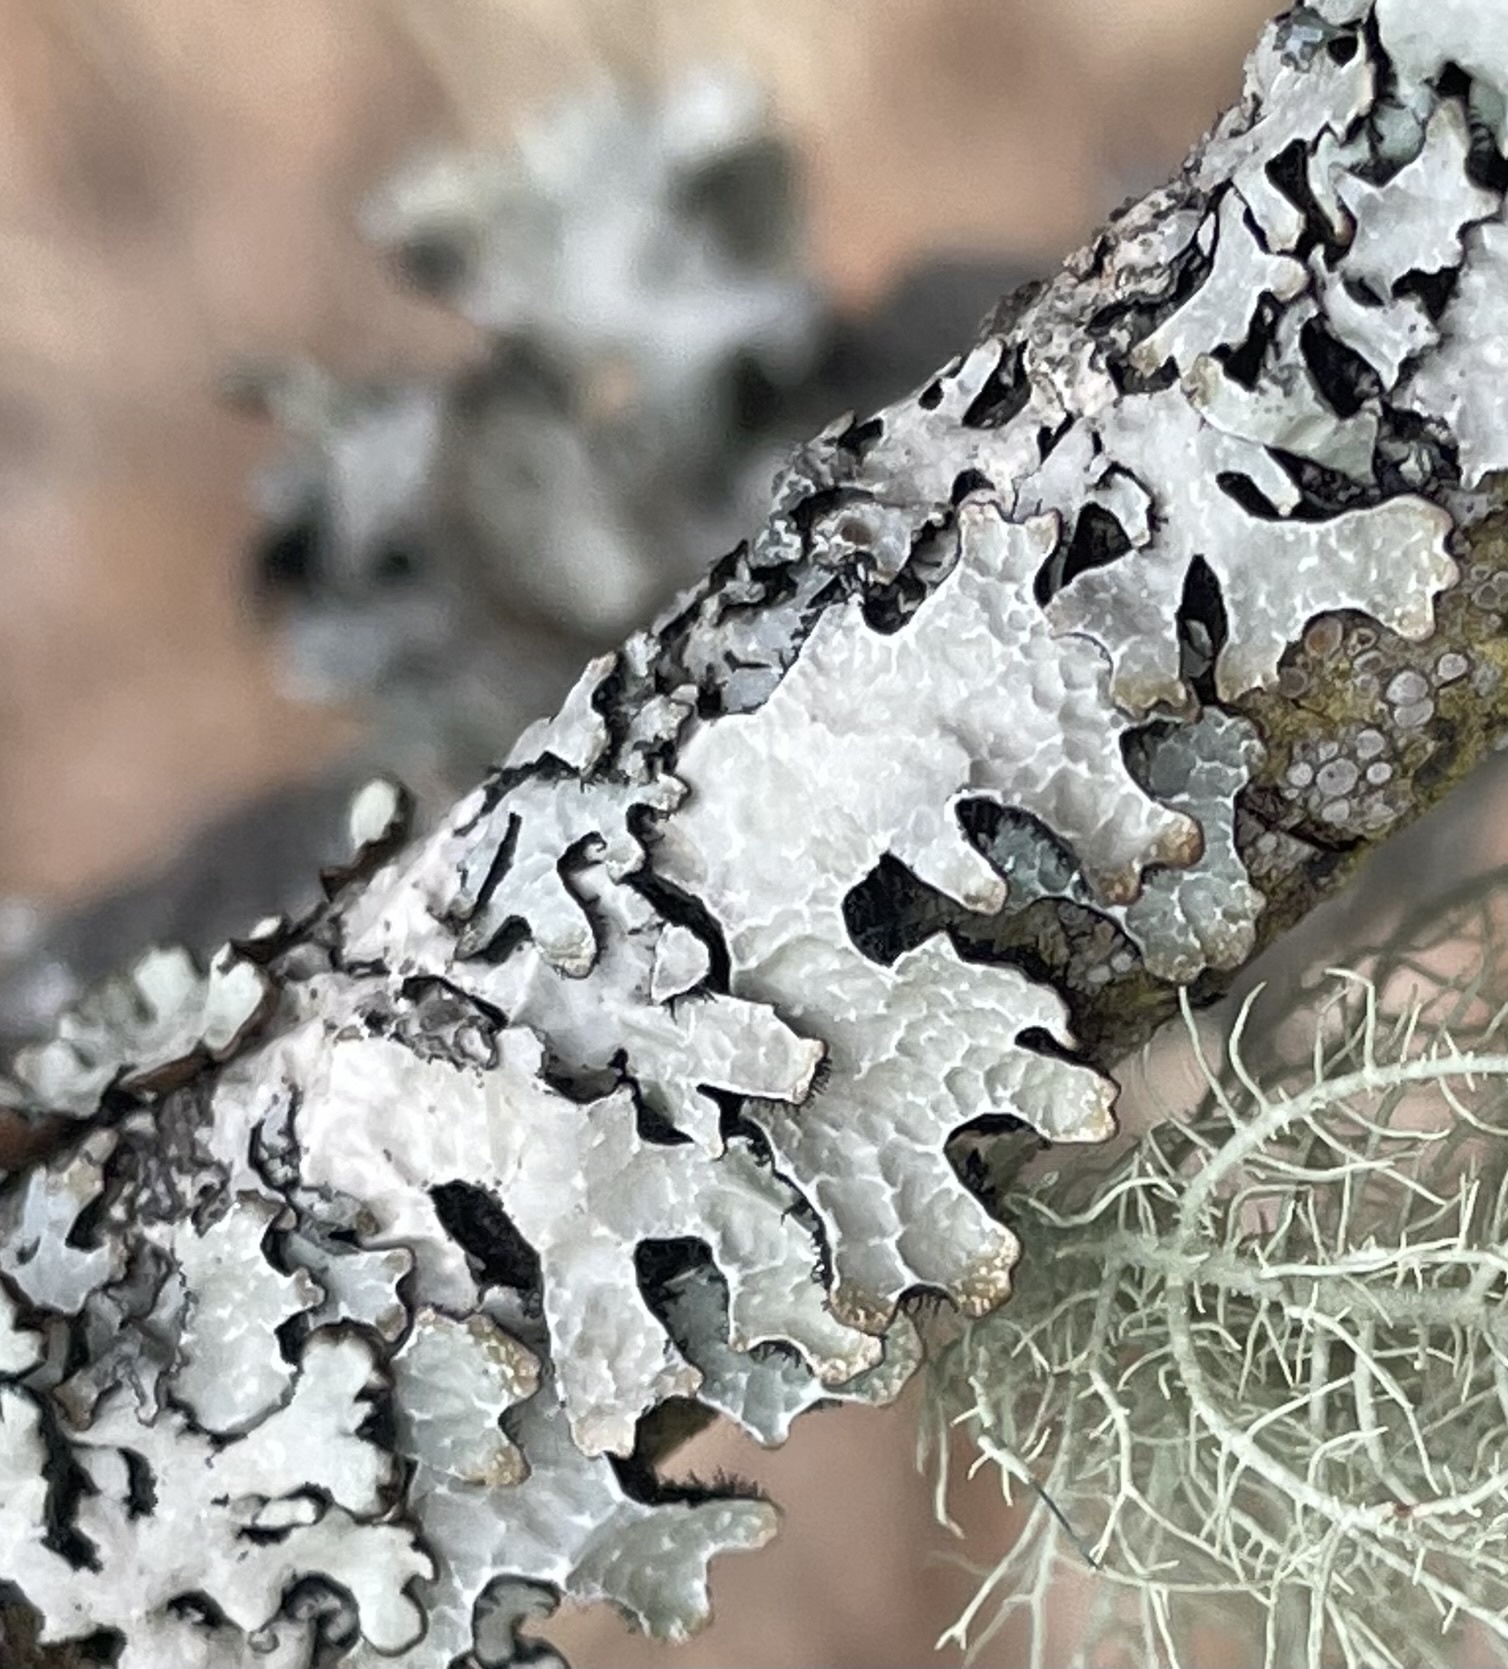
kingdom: Fungi
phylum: Ascomycota
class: Lecanoromycetes
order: Lecanorales
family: Parmeliaceae
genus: Parmelia
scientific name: Parmelia sulcata
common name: Netted shield lichen
